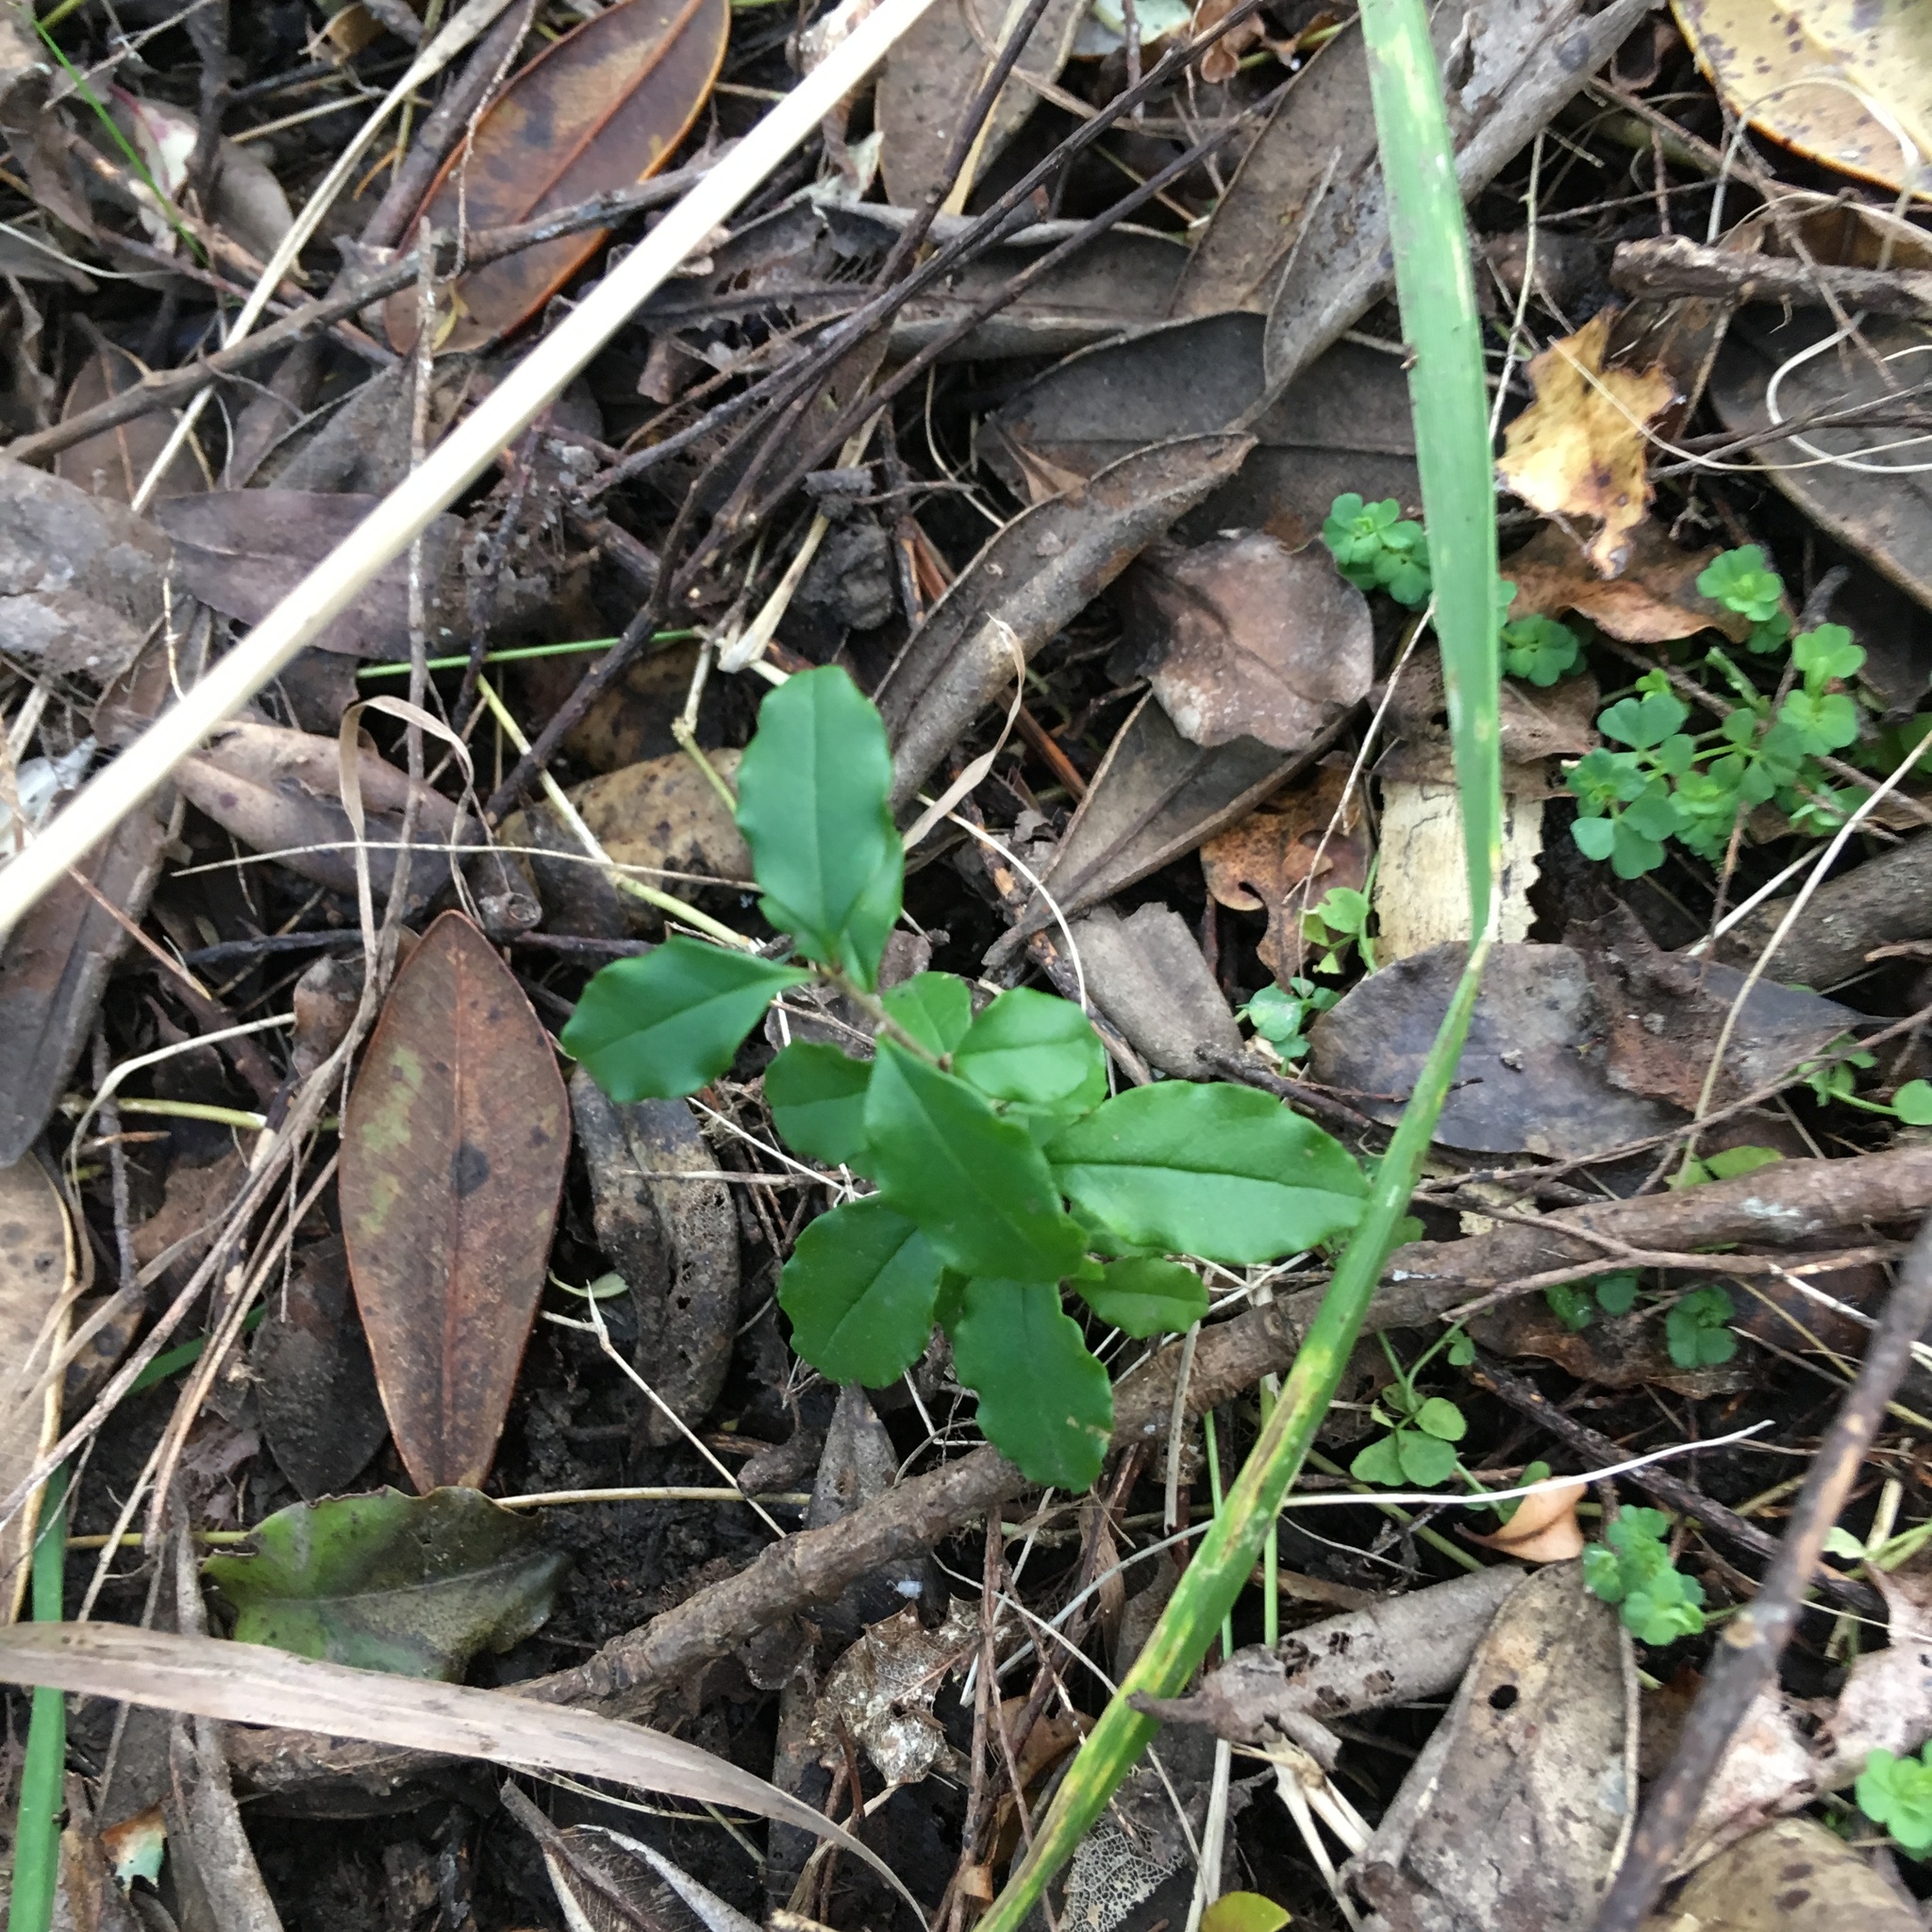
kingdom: Plantae
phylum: Tracheophyta
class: Magnoliopsida
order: Lamiales
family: Oleaceae
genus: Ligustrum
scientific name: Ligustrum sinense
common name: Chinese privet
